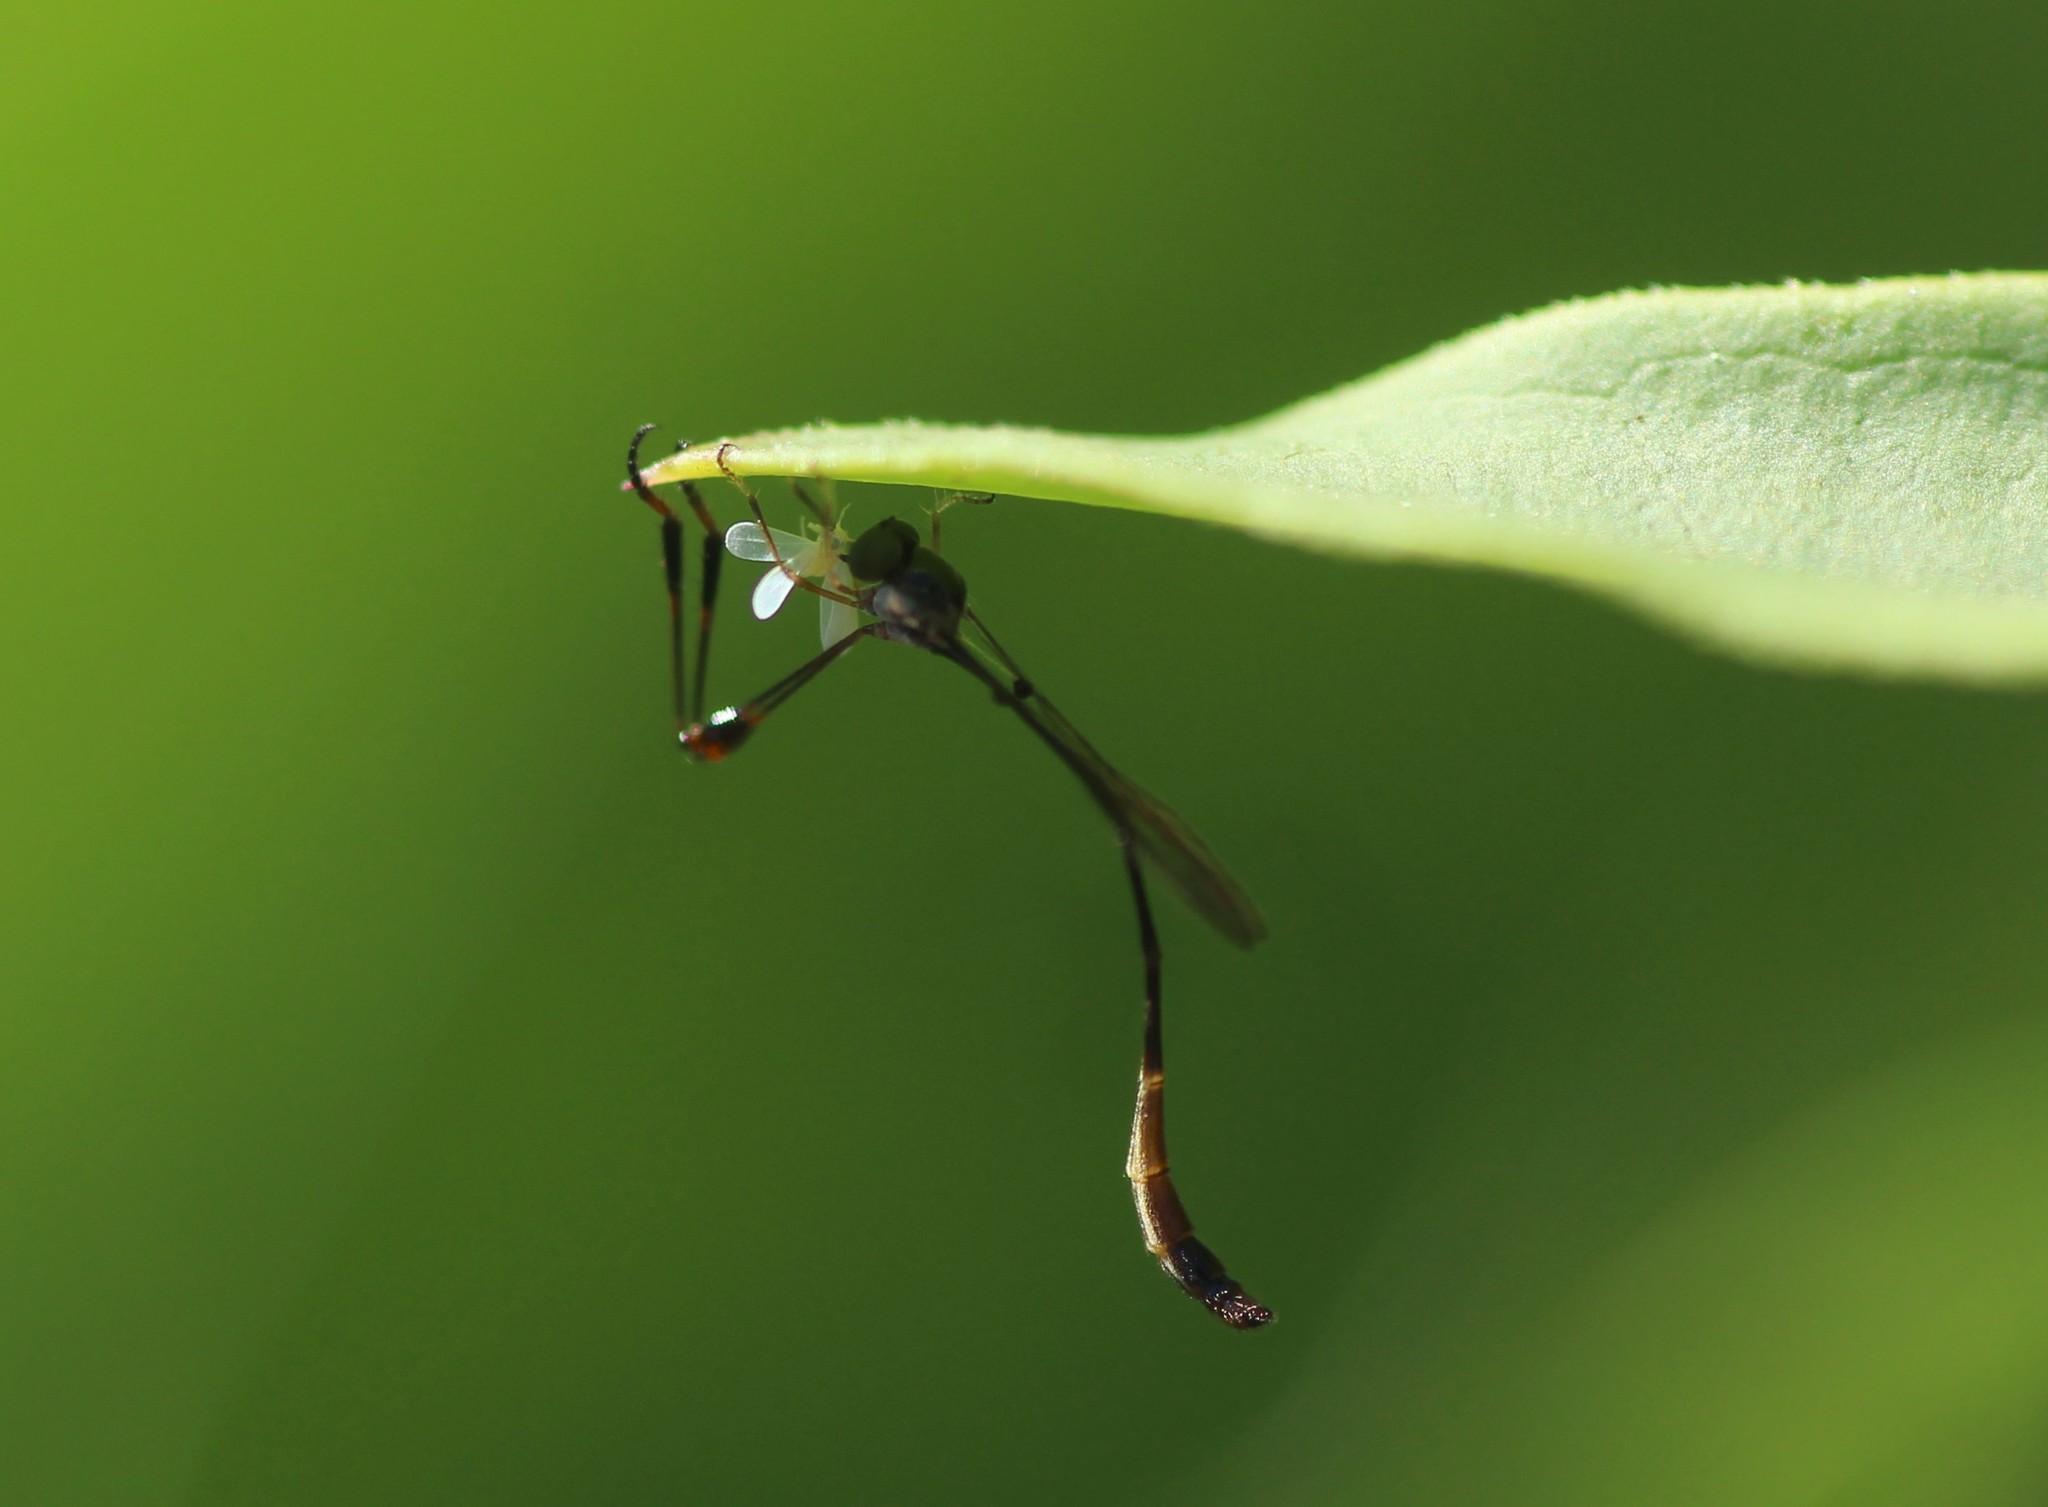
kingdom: Animalia
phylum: Arthropoda
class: Insecta
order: Diptera
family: Asilidae
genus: Leptopteromyia
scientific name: Leptopteromyia gracilis
